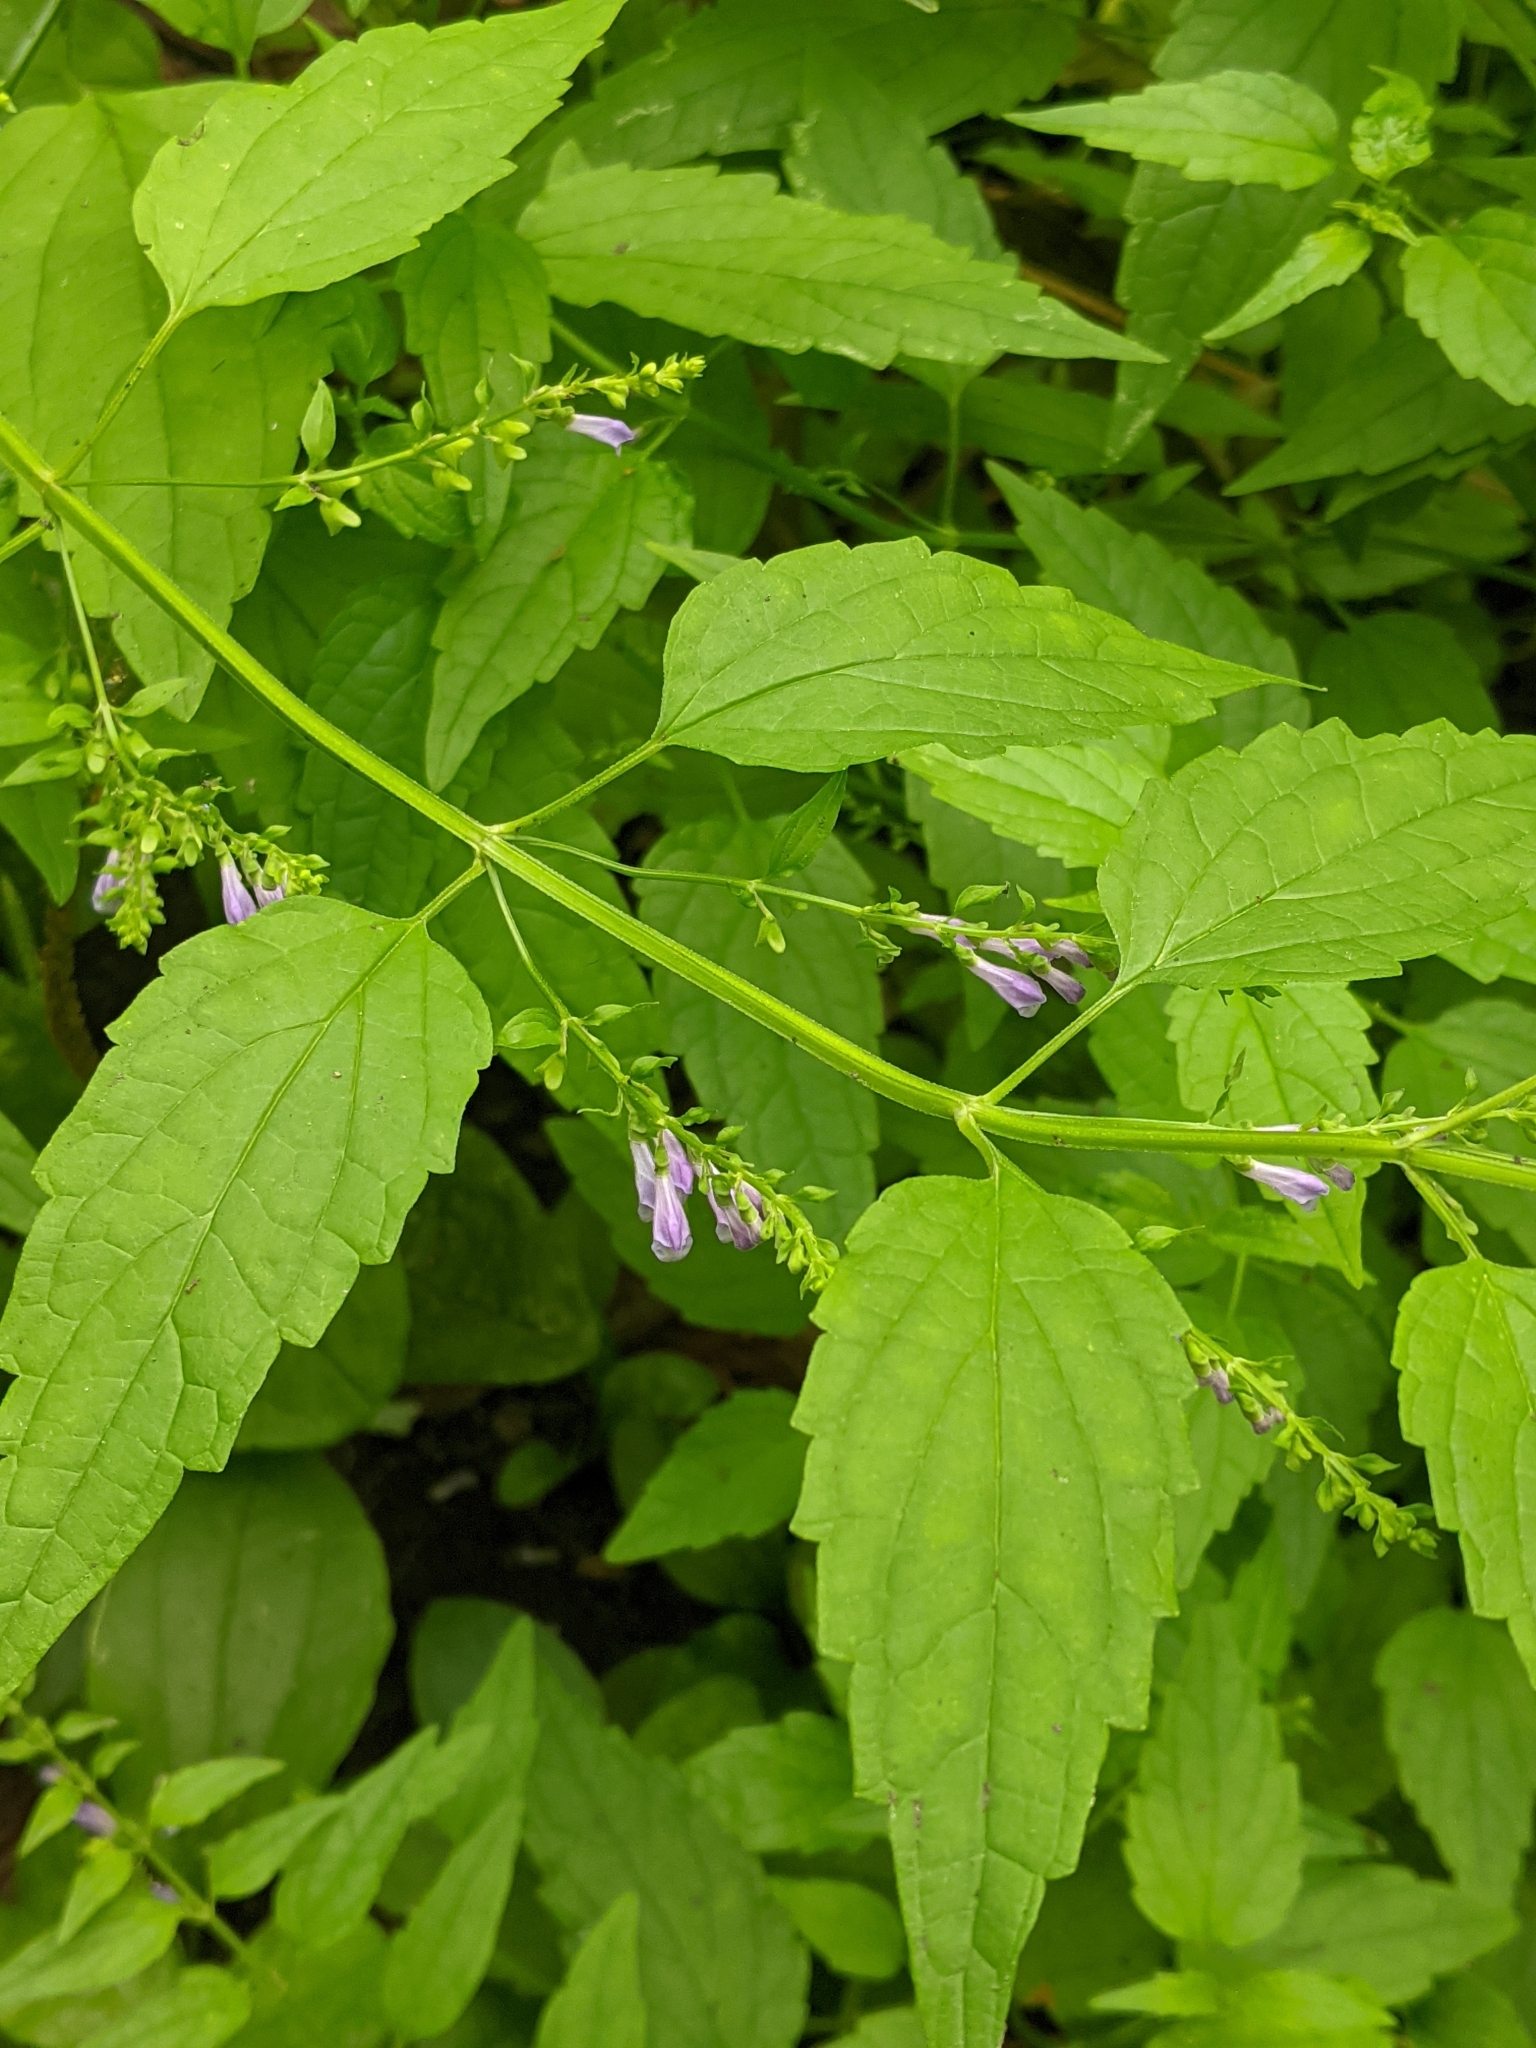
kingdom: Plantae
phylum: Tracheophyta
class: Magnoliopsida
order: Lamiales
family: Lamiaceae
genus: Scutellaria
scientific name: Scutellaria lateriflora
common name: Blue skullcap
